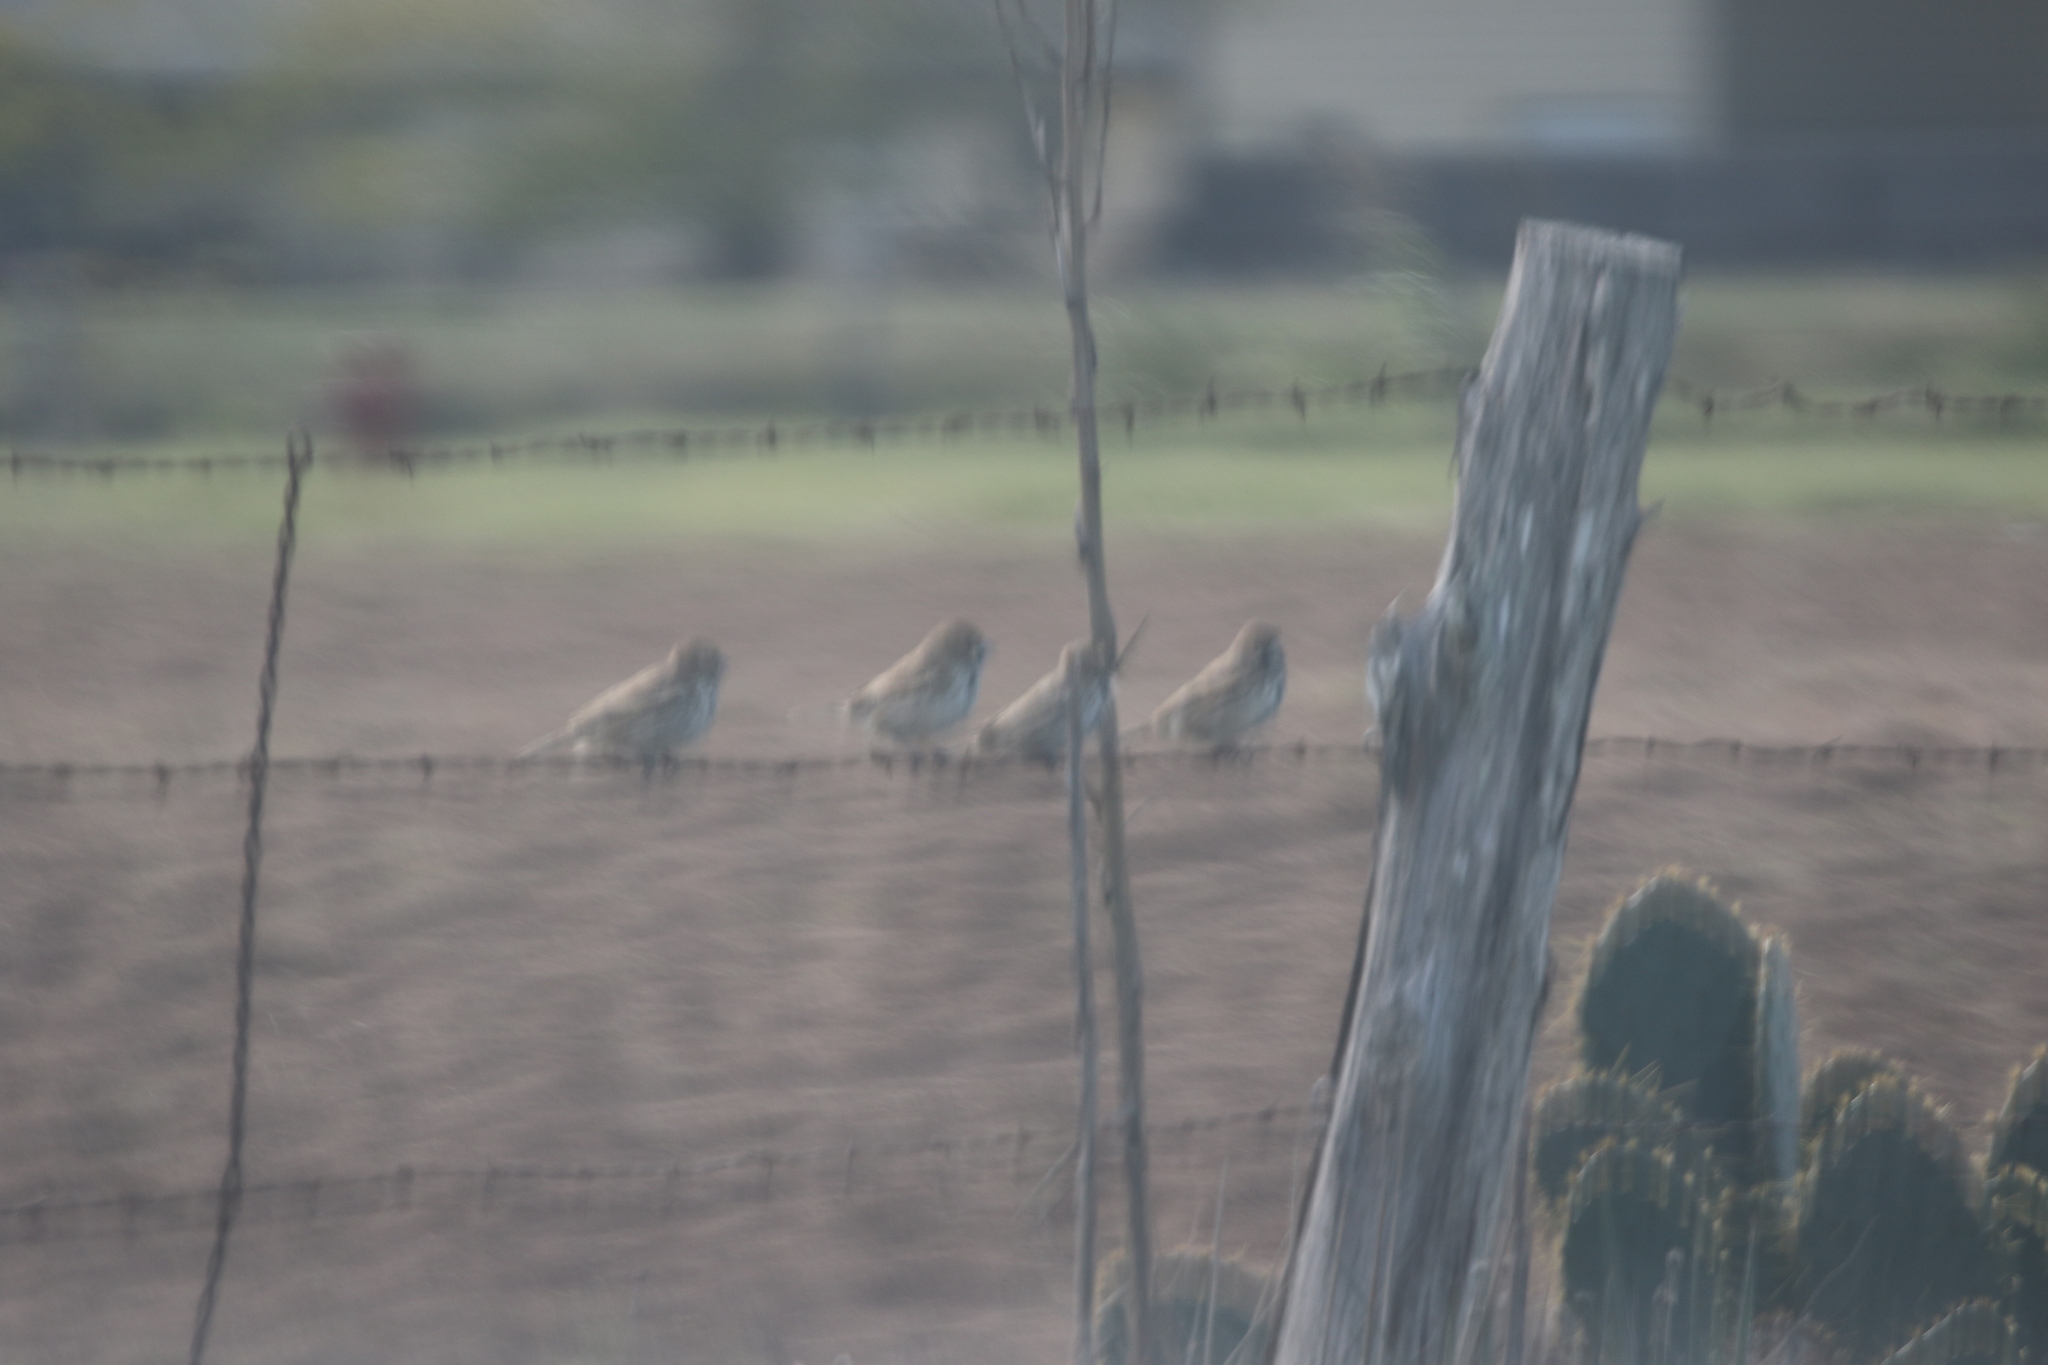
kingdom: Animalia
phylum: Chordata
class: Aves
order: Passeriformes
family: Passerellidae
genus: Calamospiza
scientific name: Calamospiza melanocorys
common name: Lark bunting
